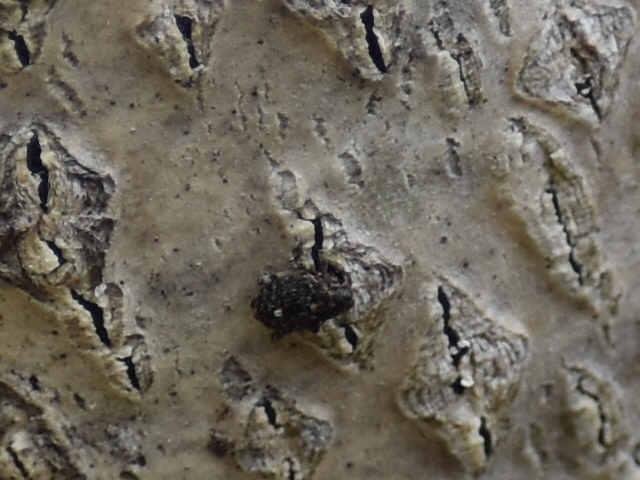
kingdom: Animalia
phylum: Arthropoda
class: Insecta
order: Coleoptera
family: Curculionidae
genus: Lechriops
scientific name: Lechriops oculatus
